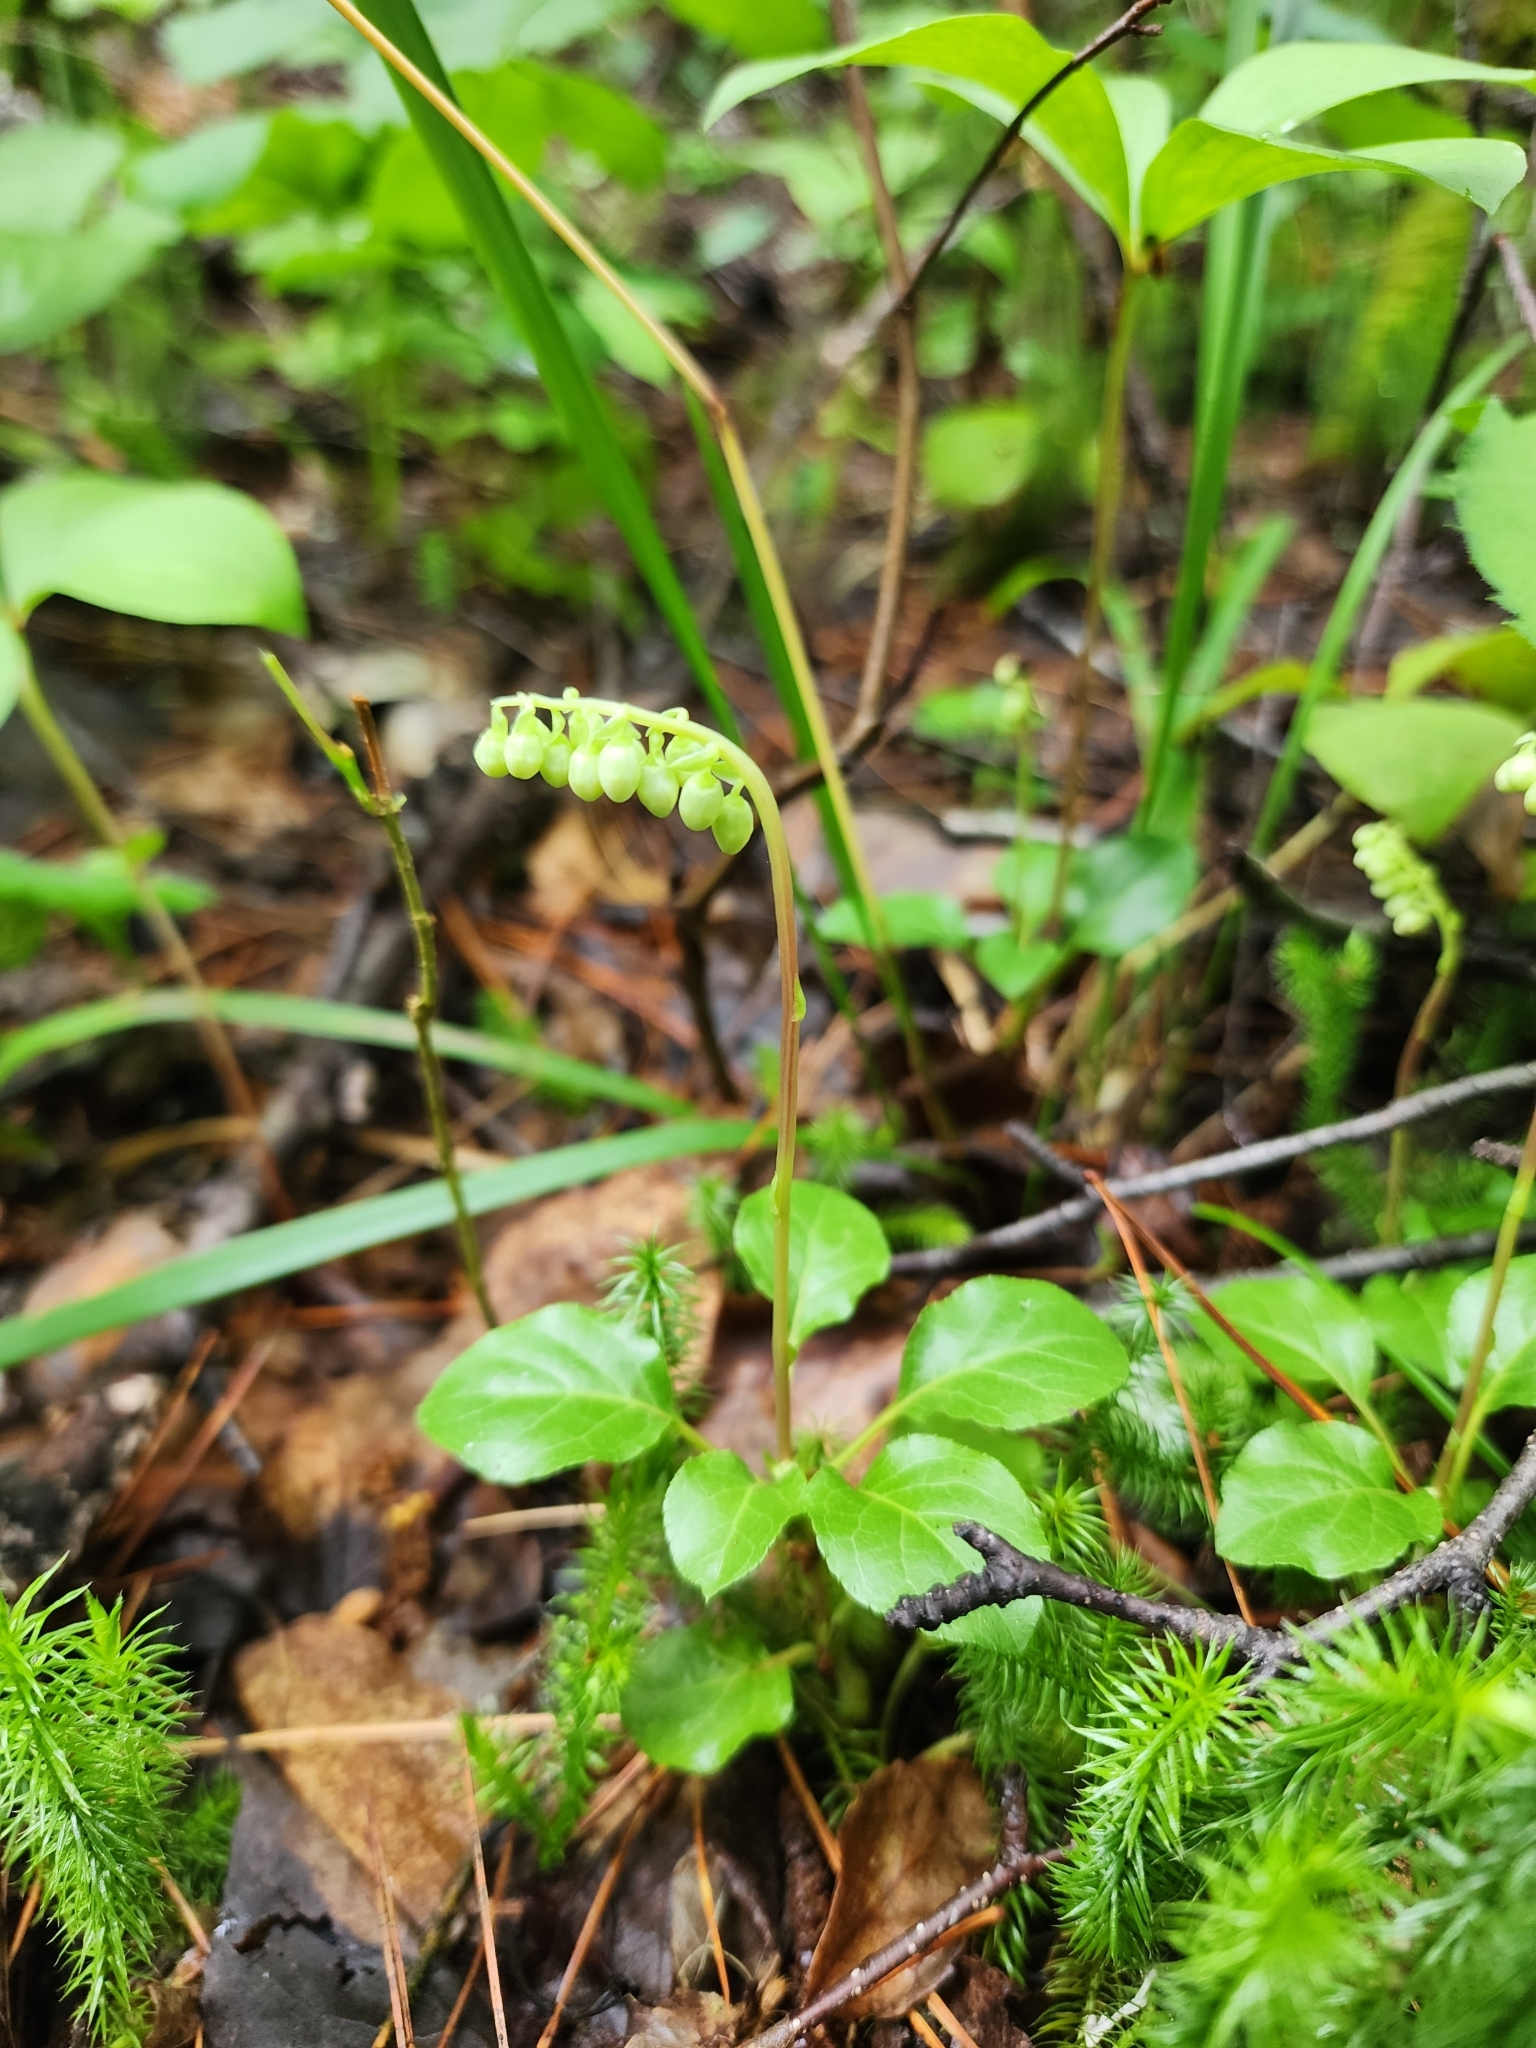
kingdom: Plantae
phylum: Tracheophyta
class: Magnoliopsida
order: Ericales
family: Ericaceae
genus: Orthilia
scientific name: Orthilia secunda
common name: One-sided orthilia
